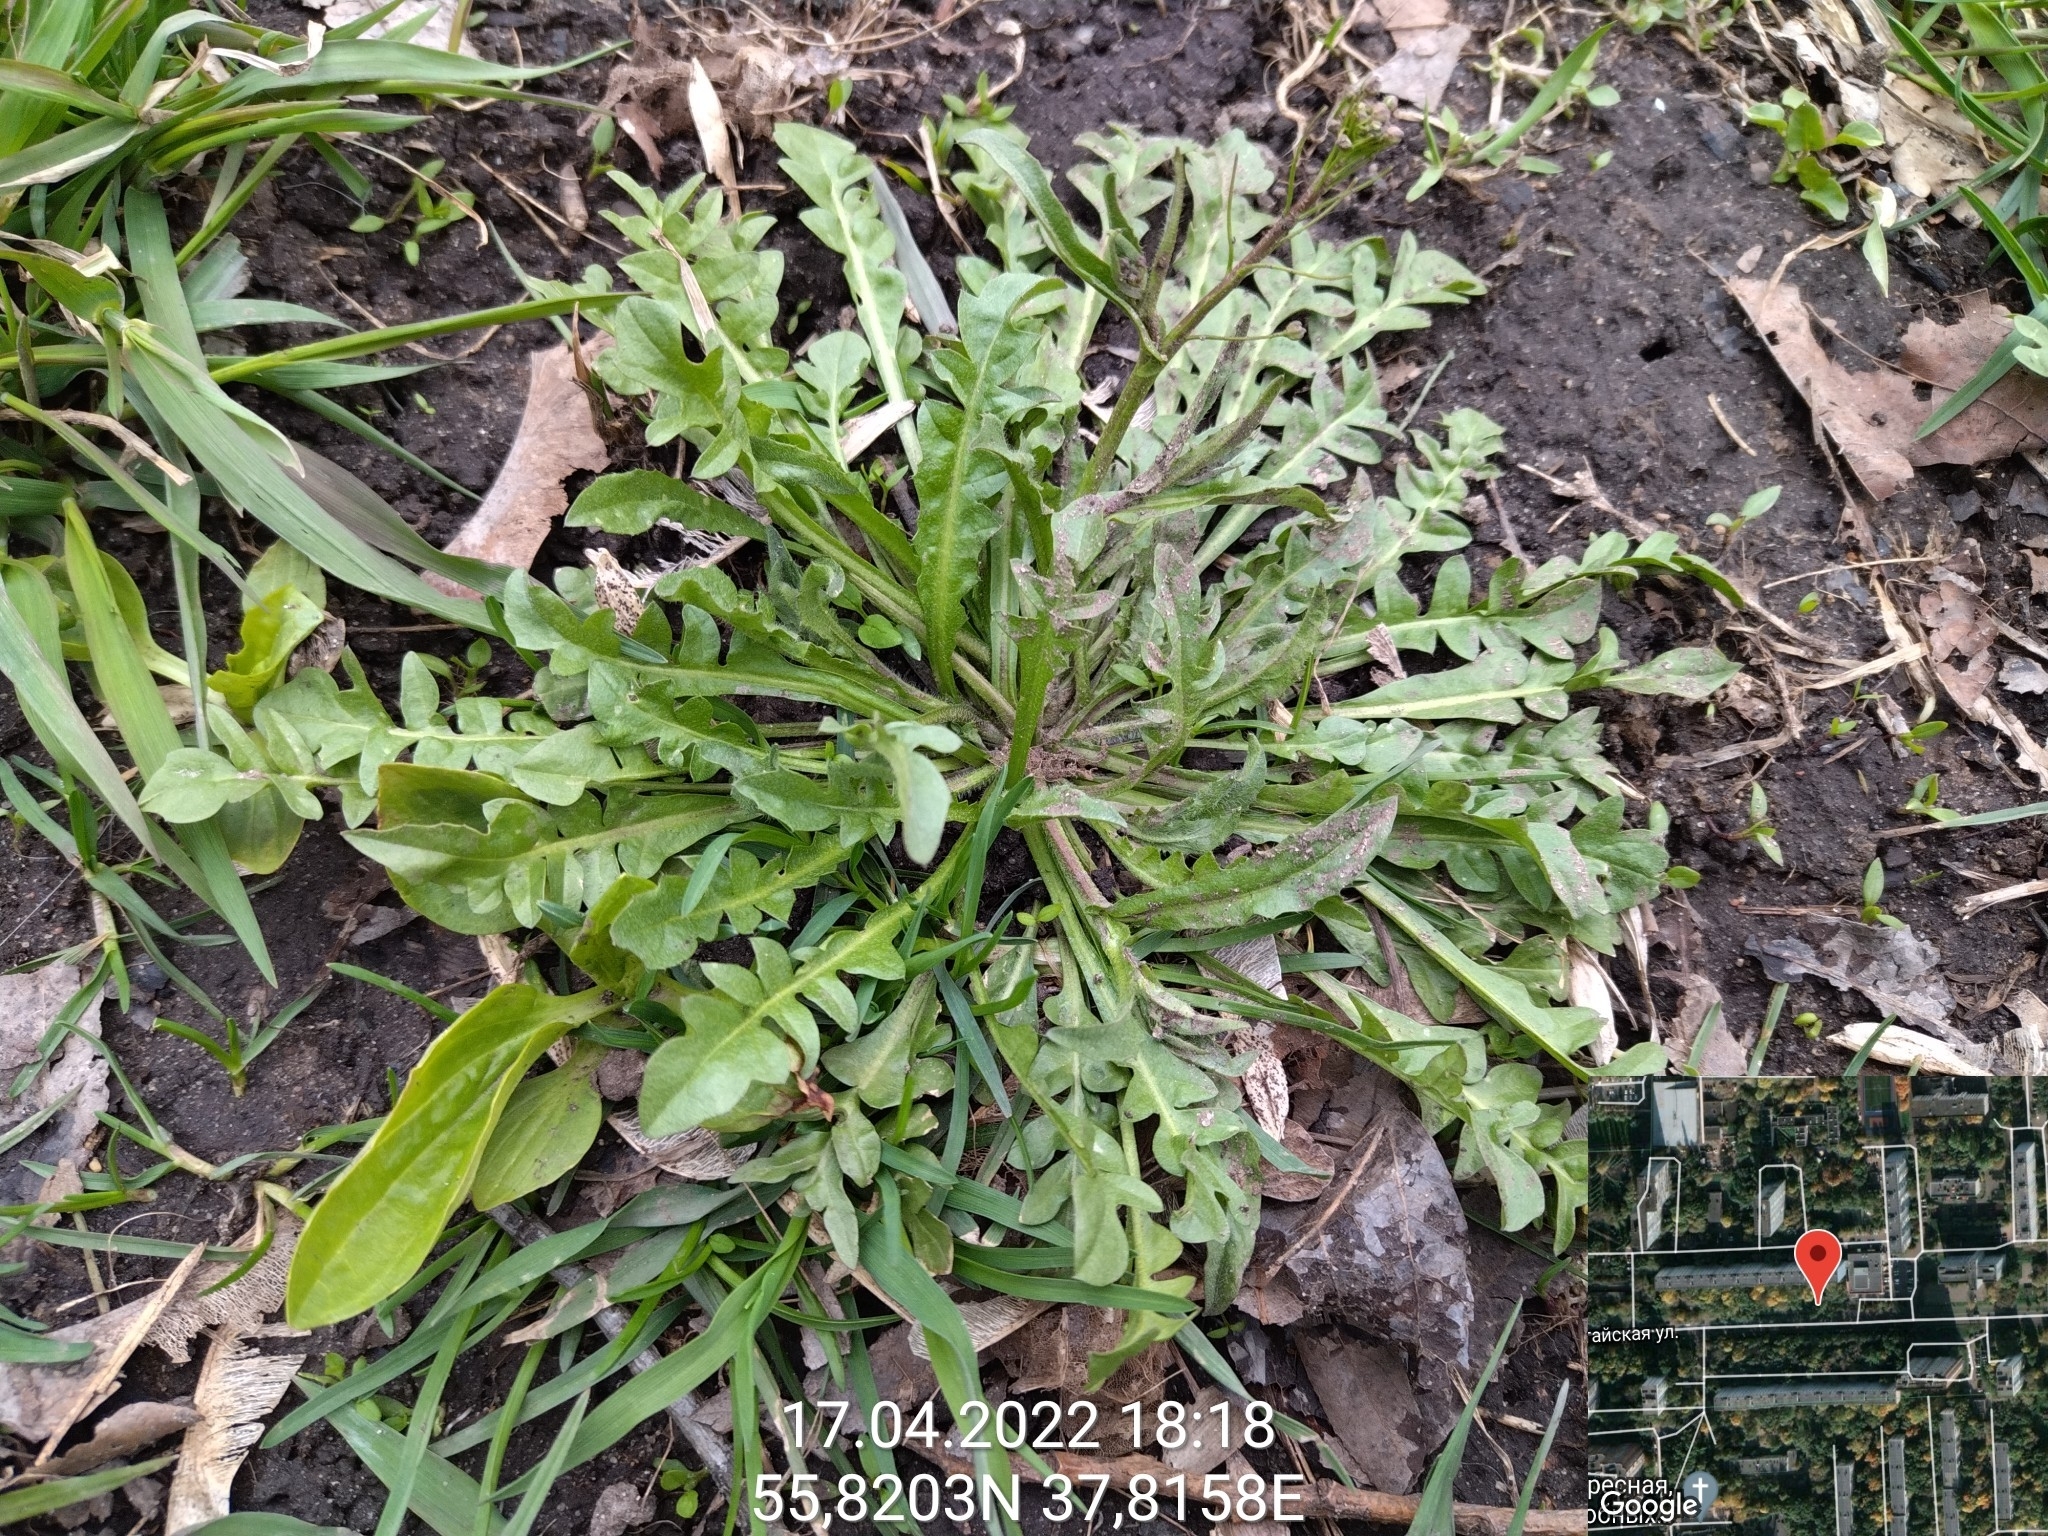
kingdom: Plantae
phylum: Tracheophyta
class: Magnoliopsida
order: Brassicales
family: Brassicaceae
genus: Capsella
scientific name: Capsella bursa-pastoris
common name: Shepherd's purse
